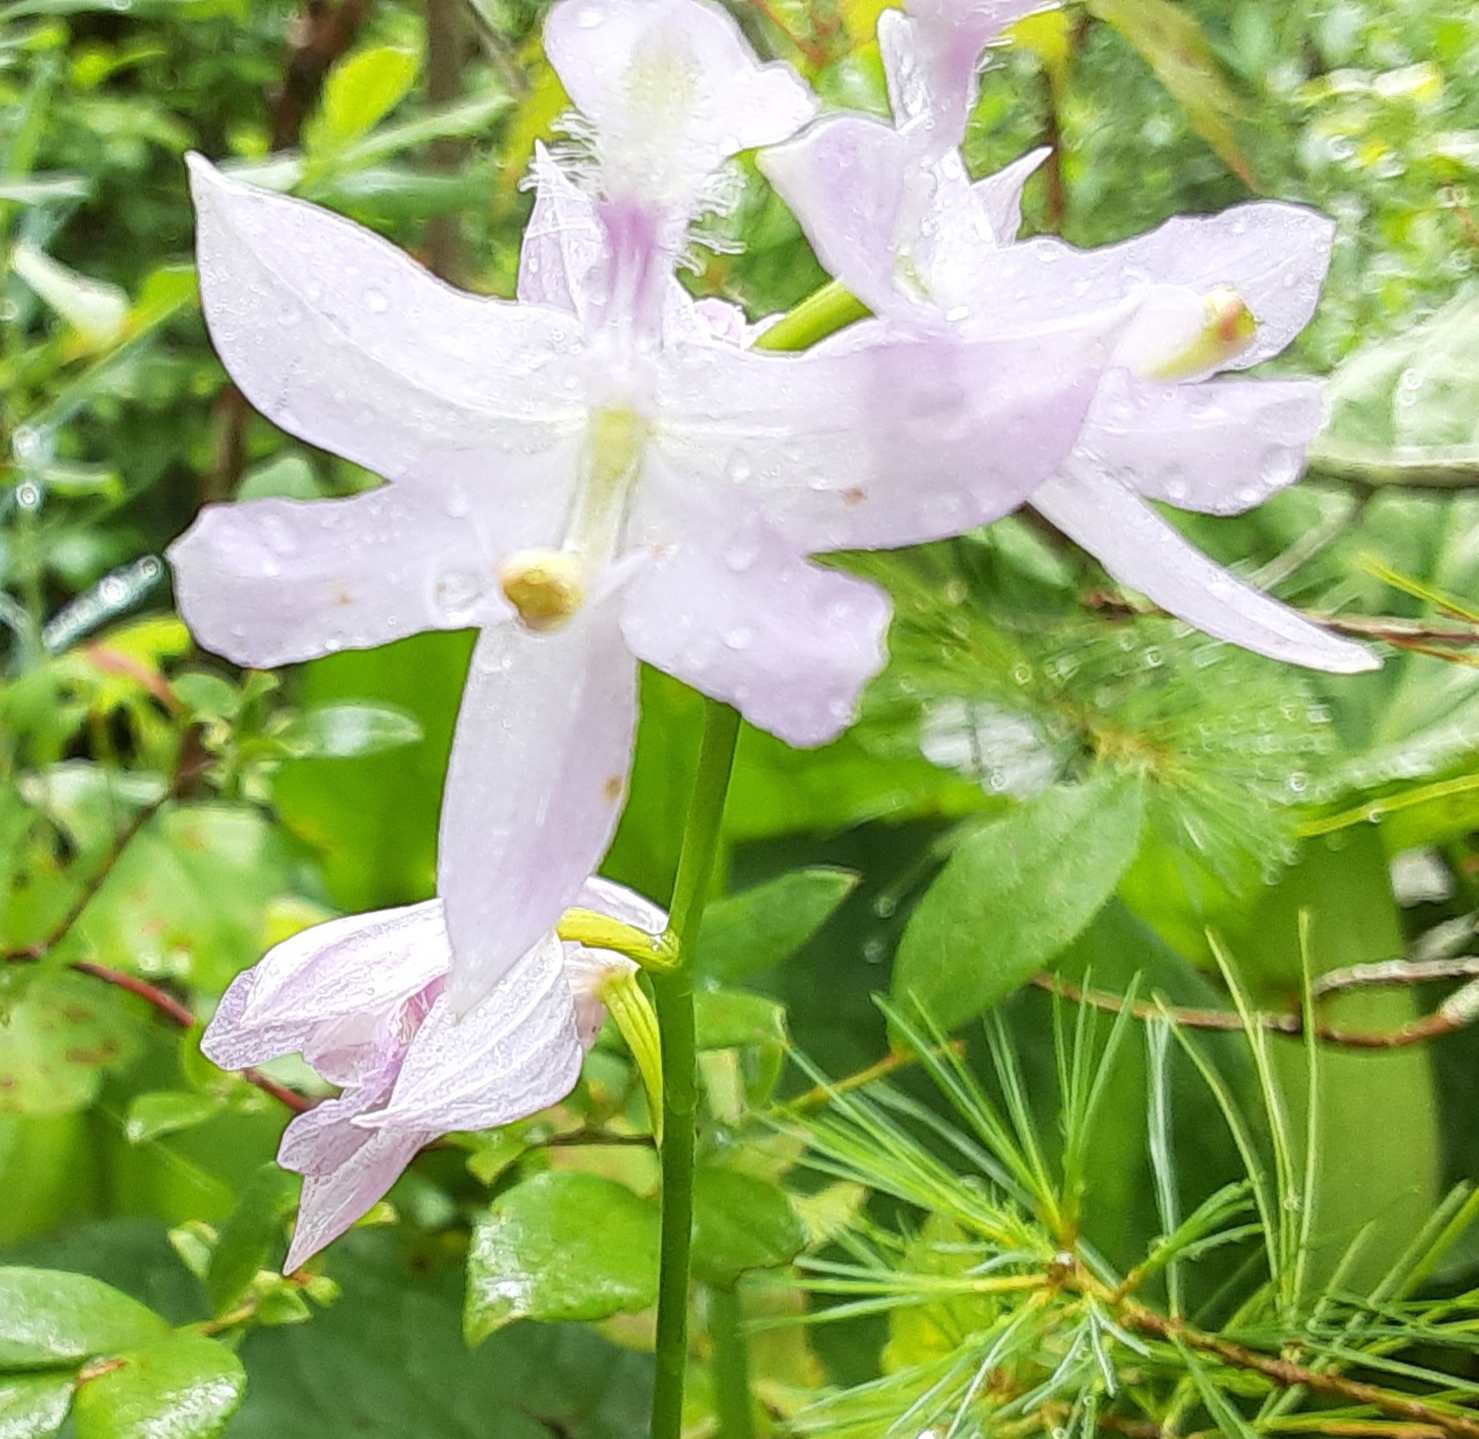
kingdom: Plantae
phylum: Tracheophyta
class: Liliopsida
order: Asparagales
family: Orchidaceae
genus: Calopogon
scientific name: Calopogon tuberosus
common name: Grass-pink
